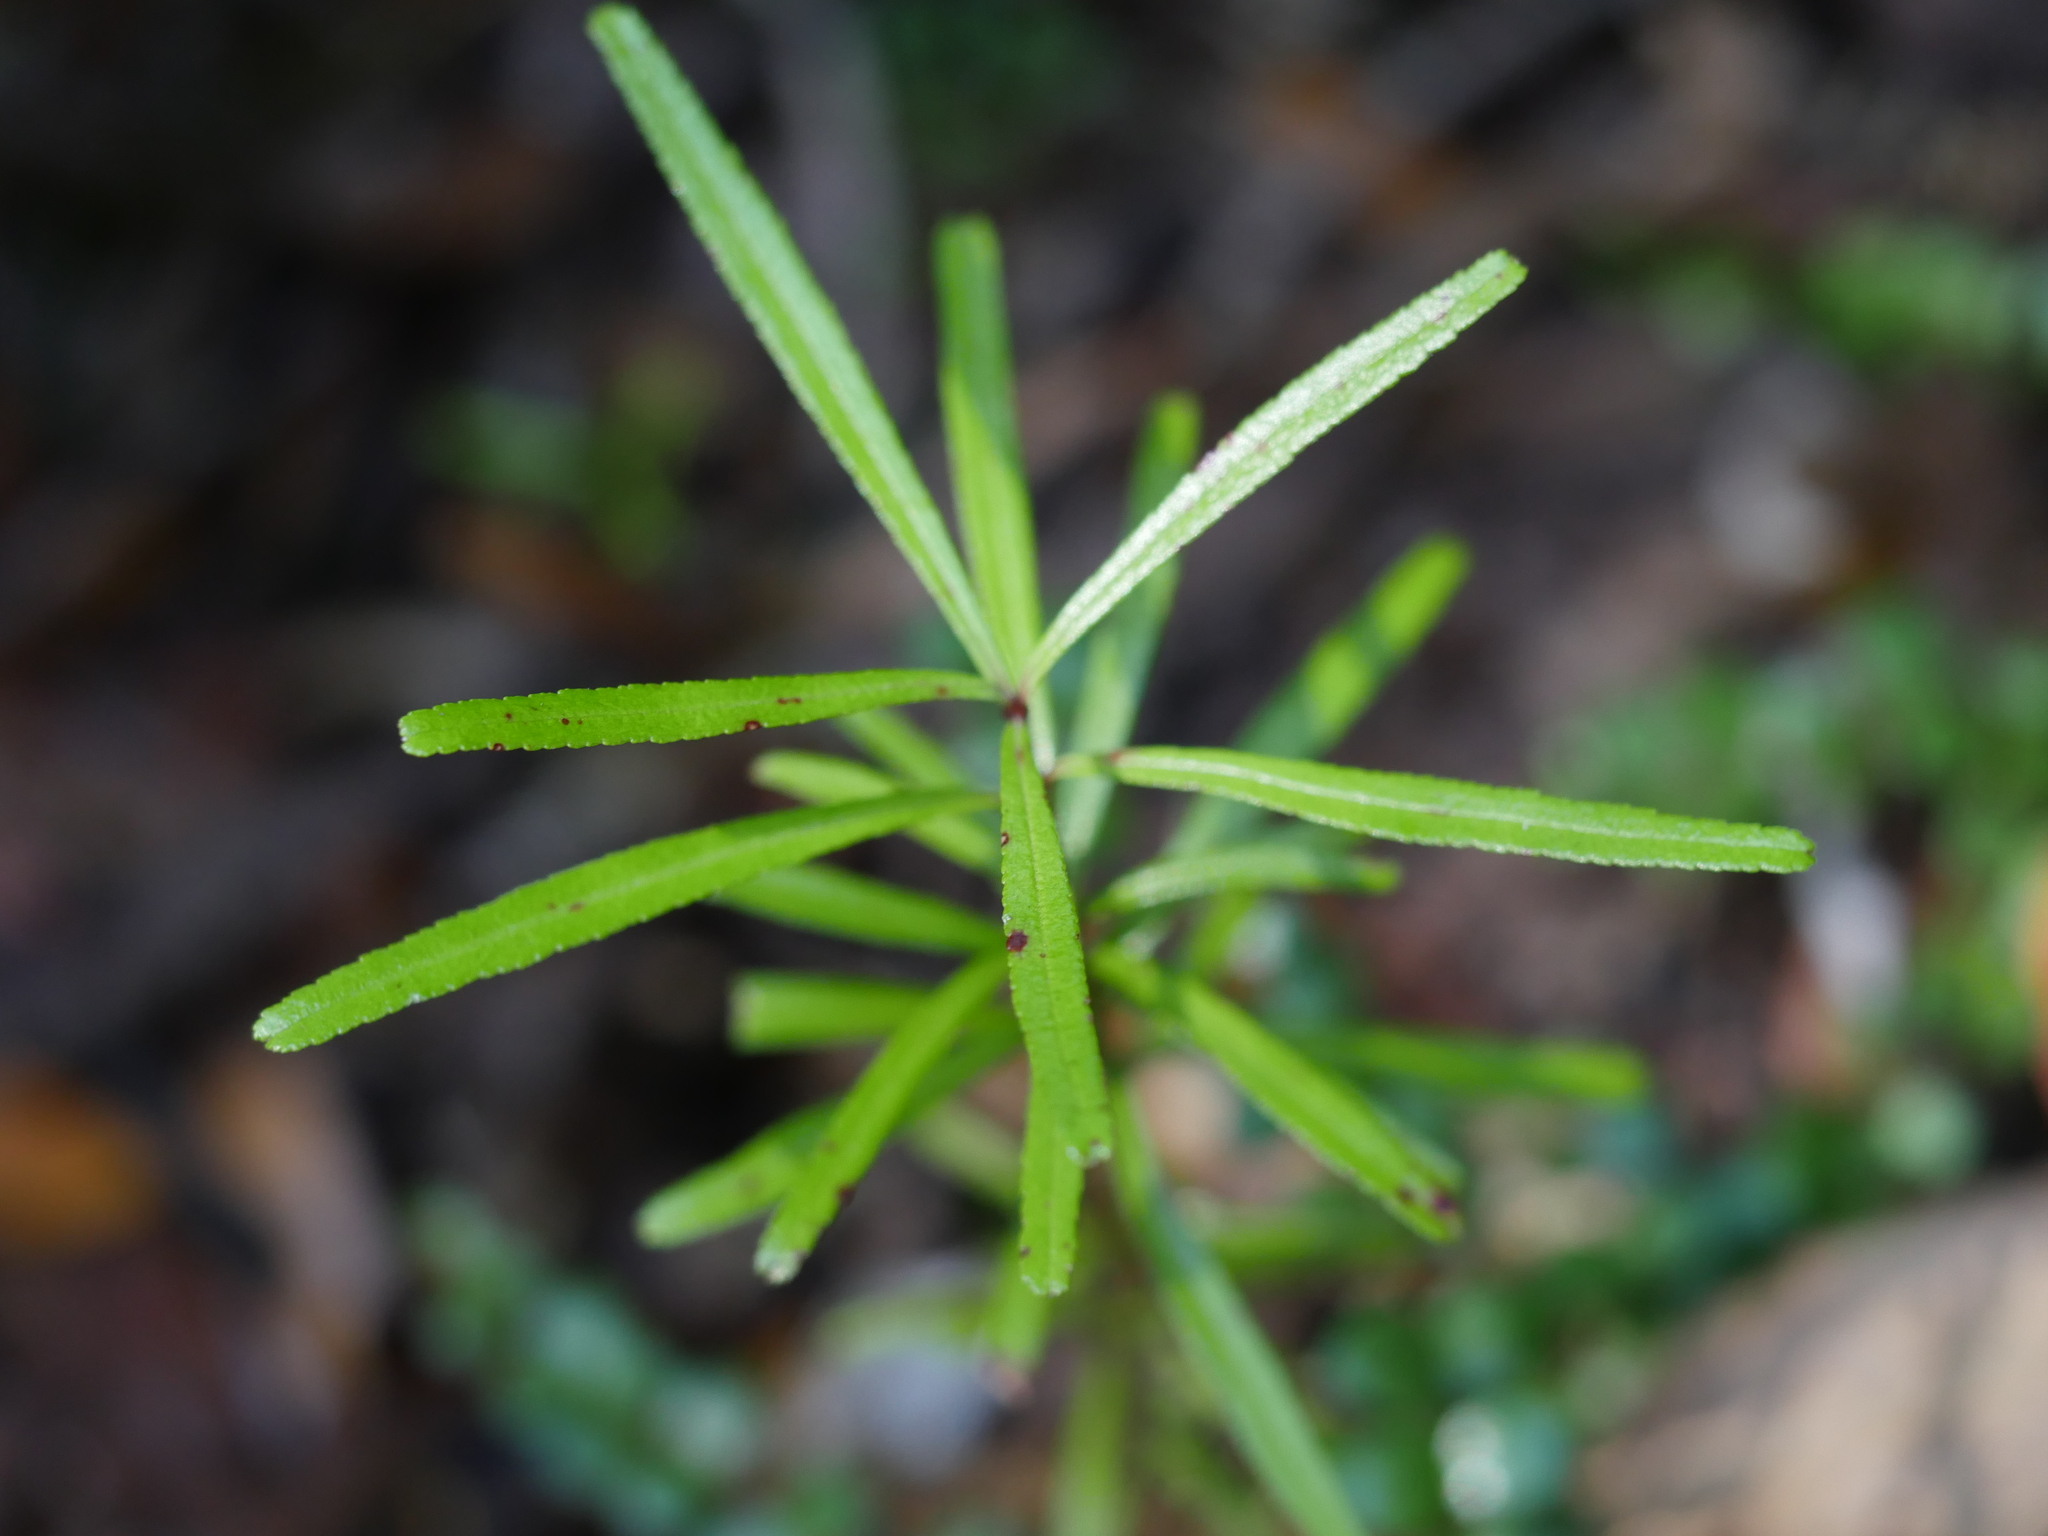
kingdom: Plantae
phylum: Tracheophyta
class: Magnoliopsida
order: Sapindales
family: Rutaceae
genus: Leionema
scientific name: Leionema nudum
